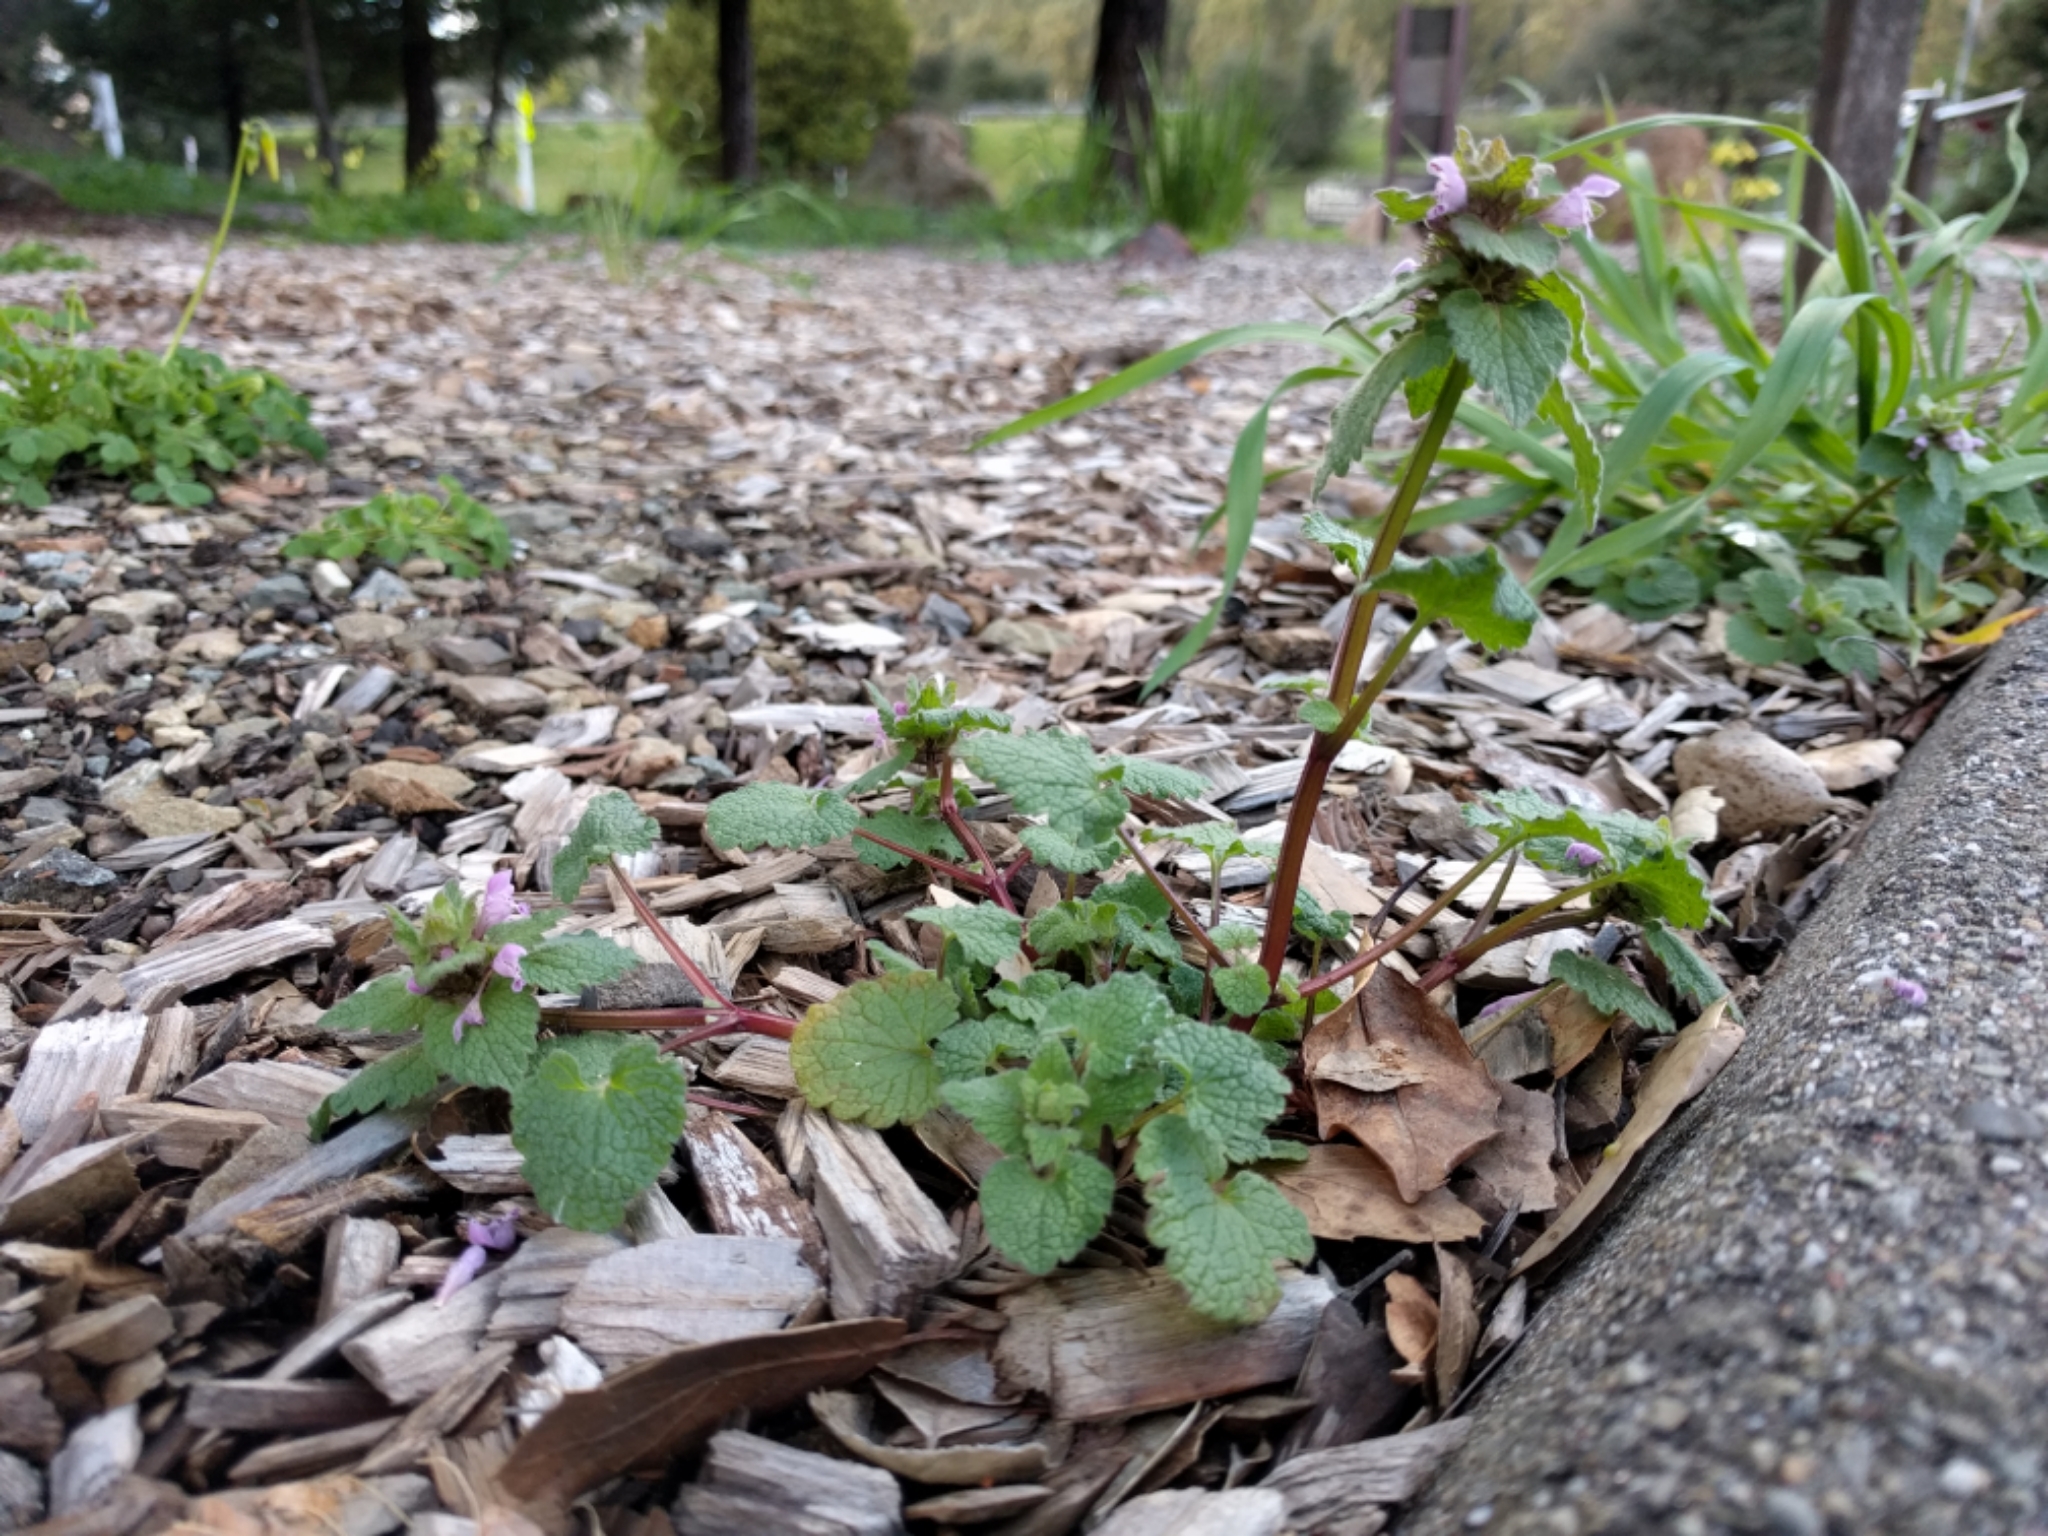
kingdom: Plantae
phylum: Tracheophyta
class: Magnoliopsida
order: Lamiales
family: Lamiaceae
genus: Lamium
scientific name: Lamium purpureum
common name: Red dead-nettle
